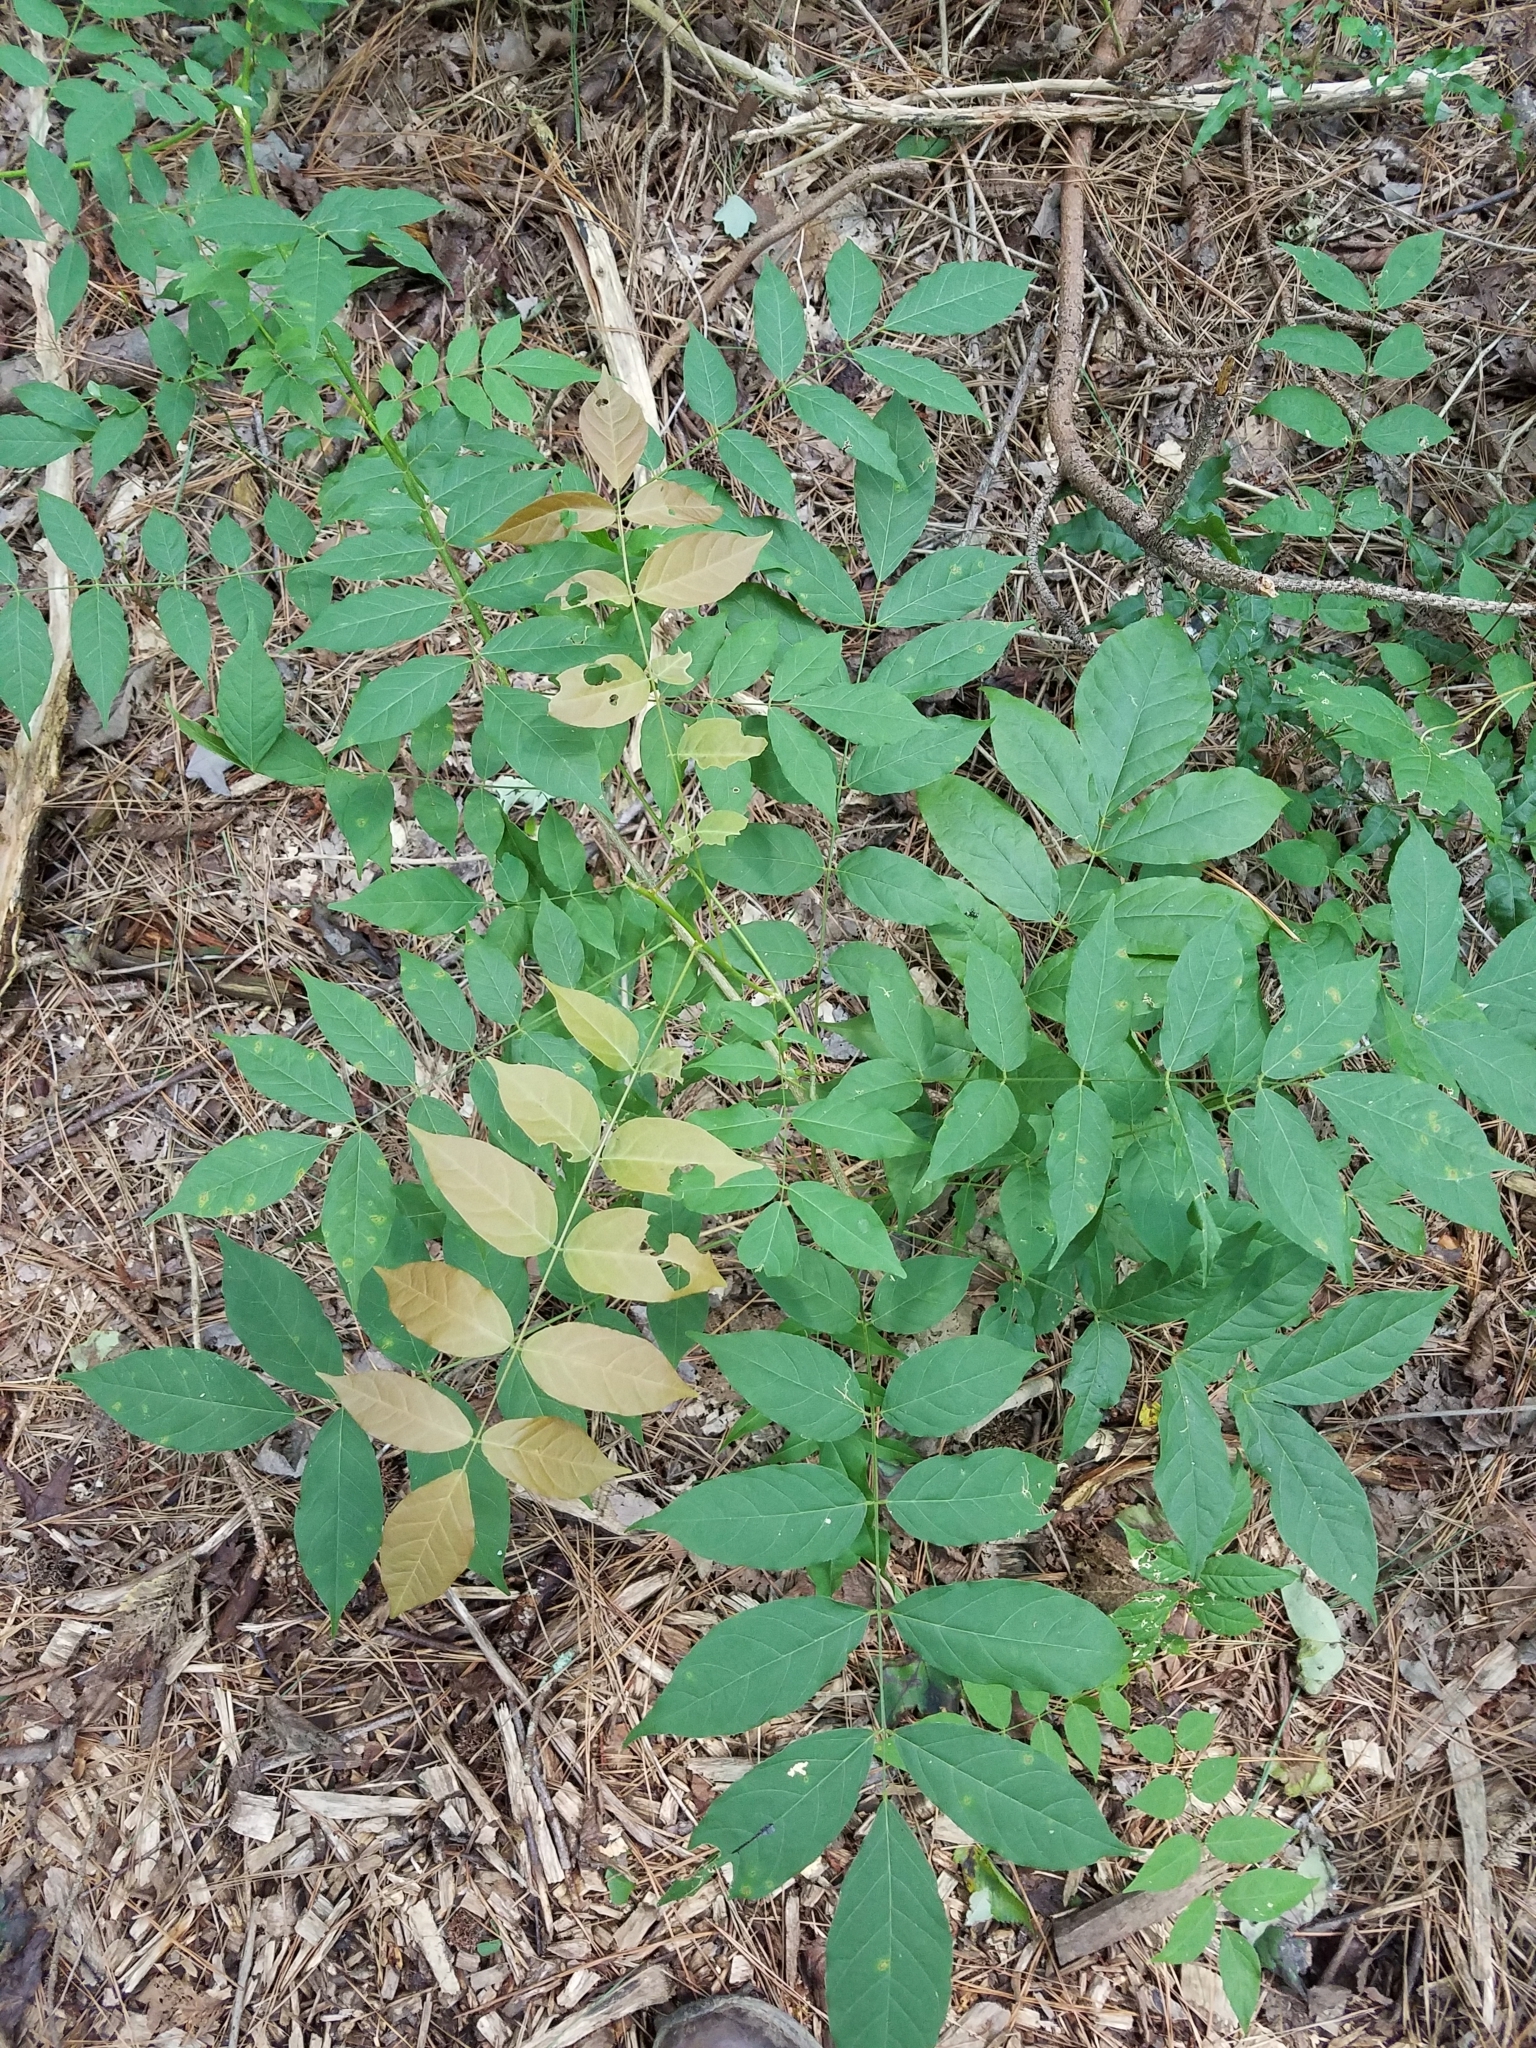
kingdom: Plantae
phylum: Tracheophyta
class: Magnoliopsida
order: Fabales
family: Fabaceae
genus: Wisteria
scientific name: Wisteria sinensis
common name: Chinese wisteria
